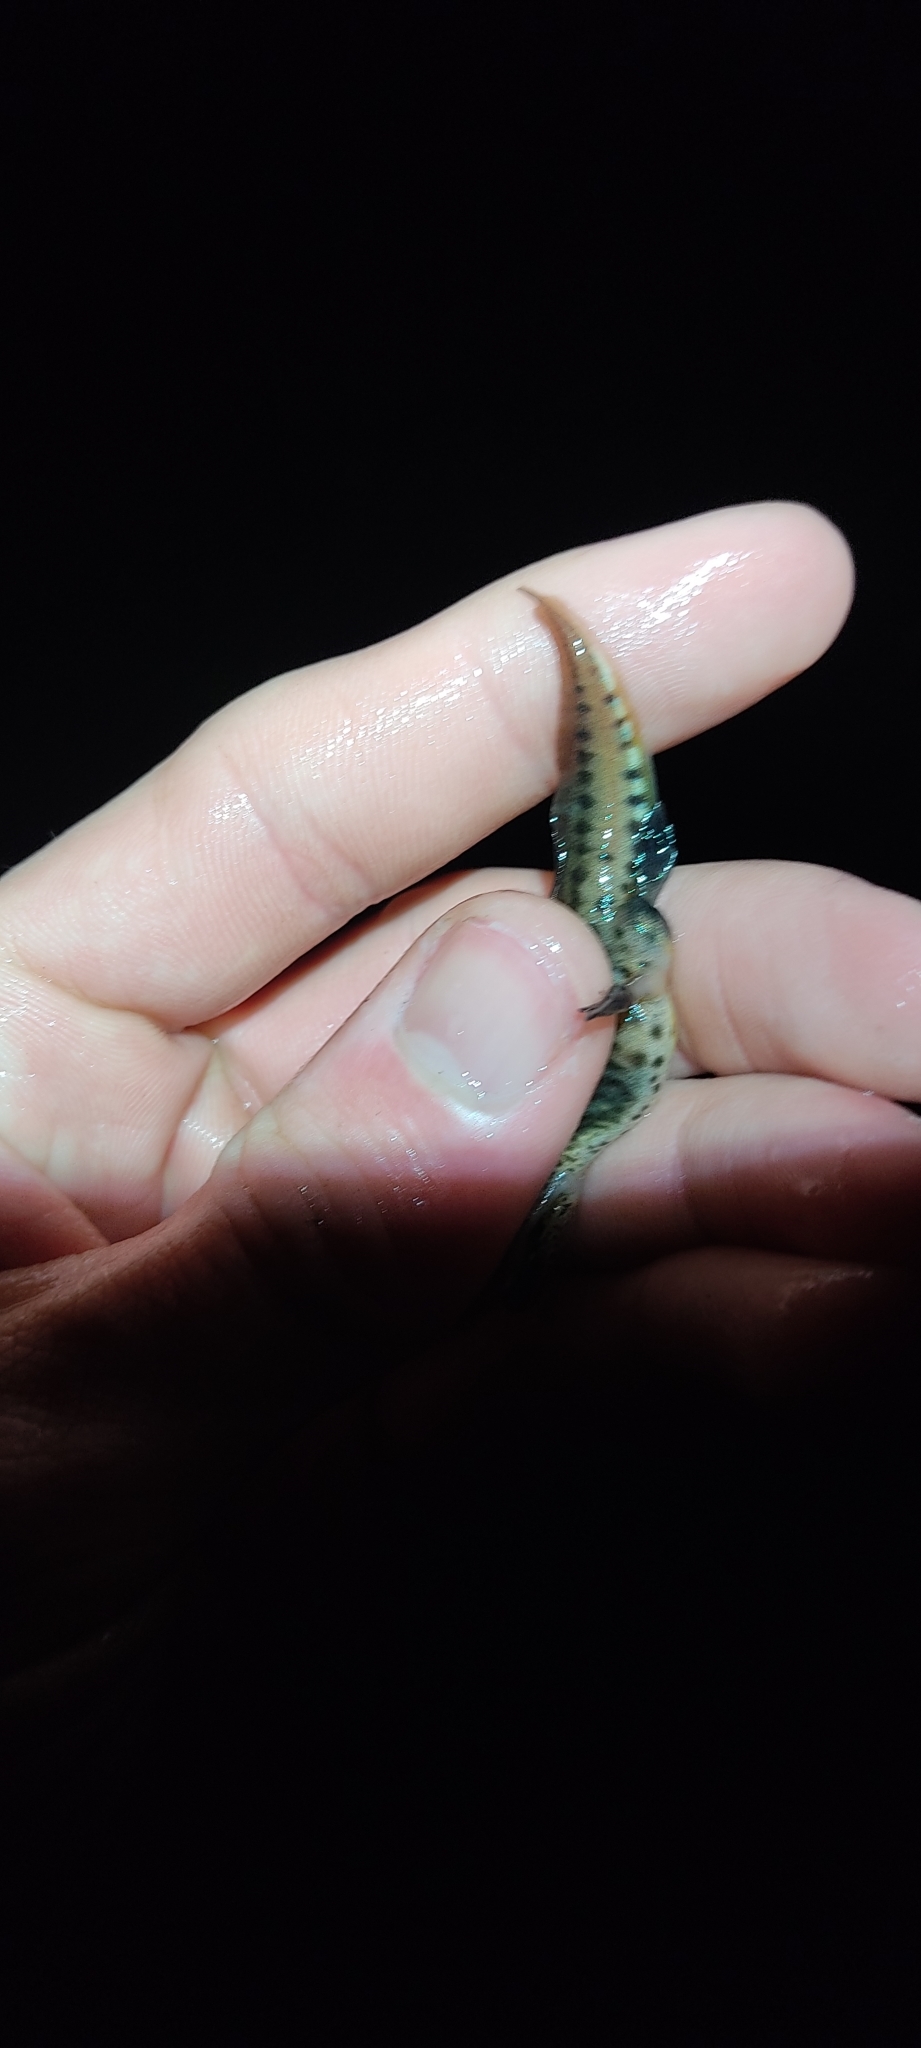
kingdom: Animalia
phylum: Chordata
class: Amphibia
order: Caudata
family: Salamandridae
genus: Lissotriton
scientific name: Lissotriton helveticus
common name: Palmate newt
